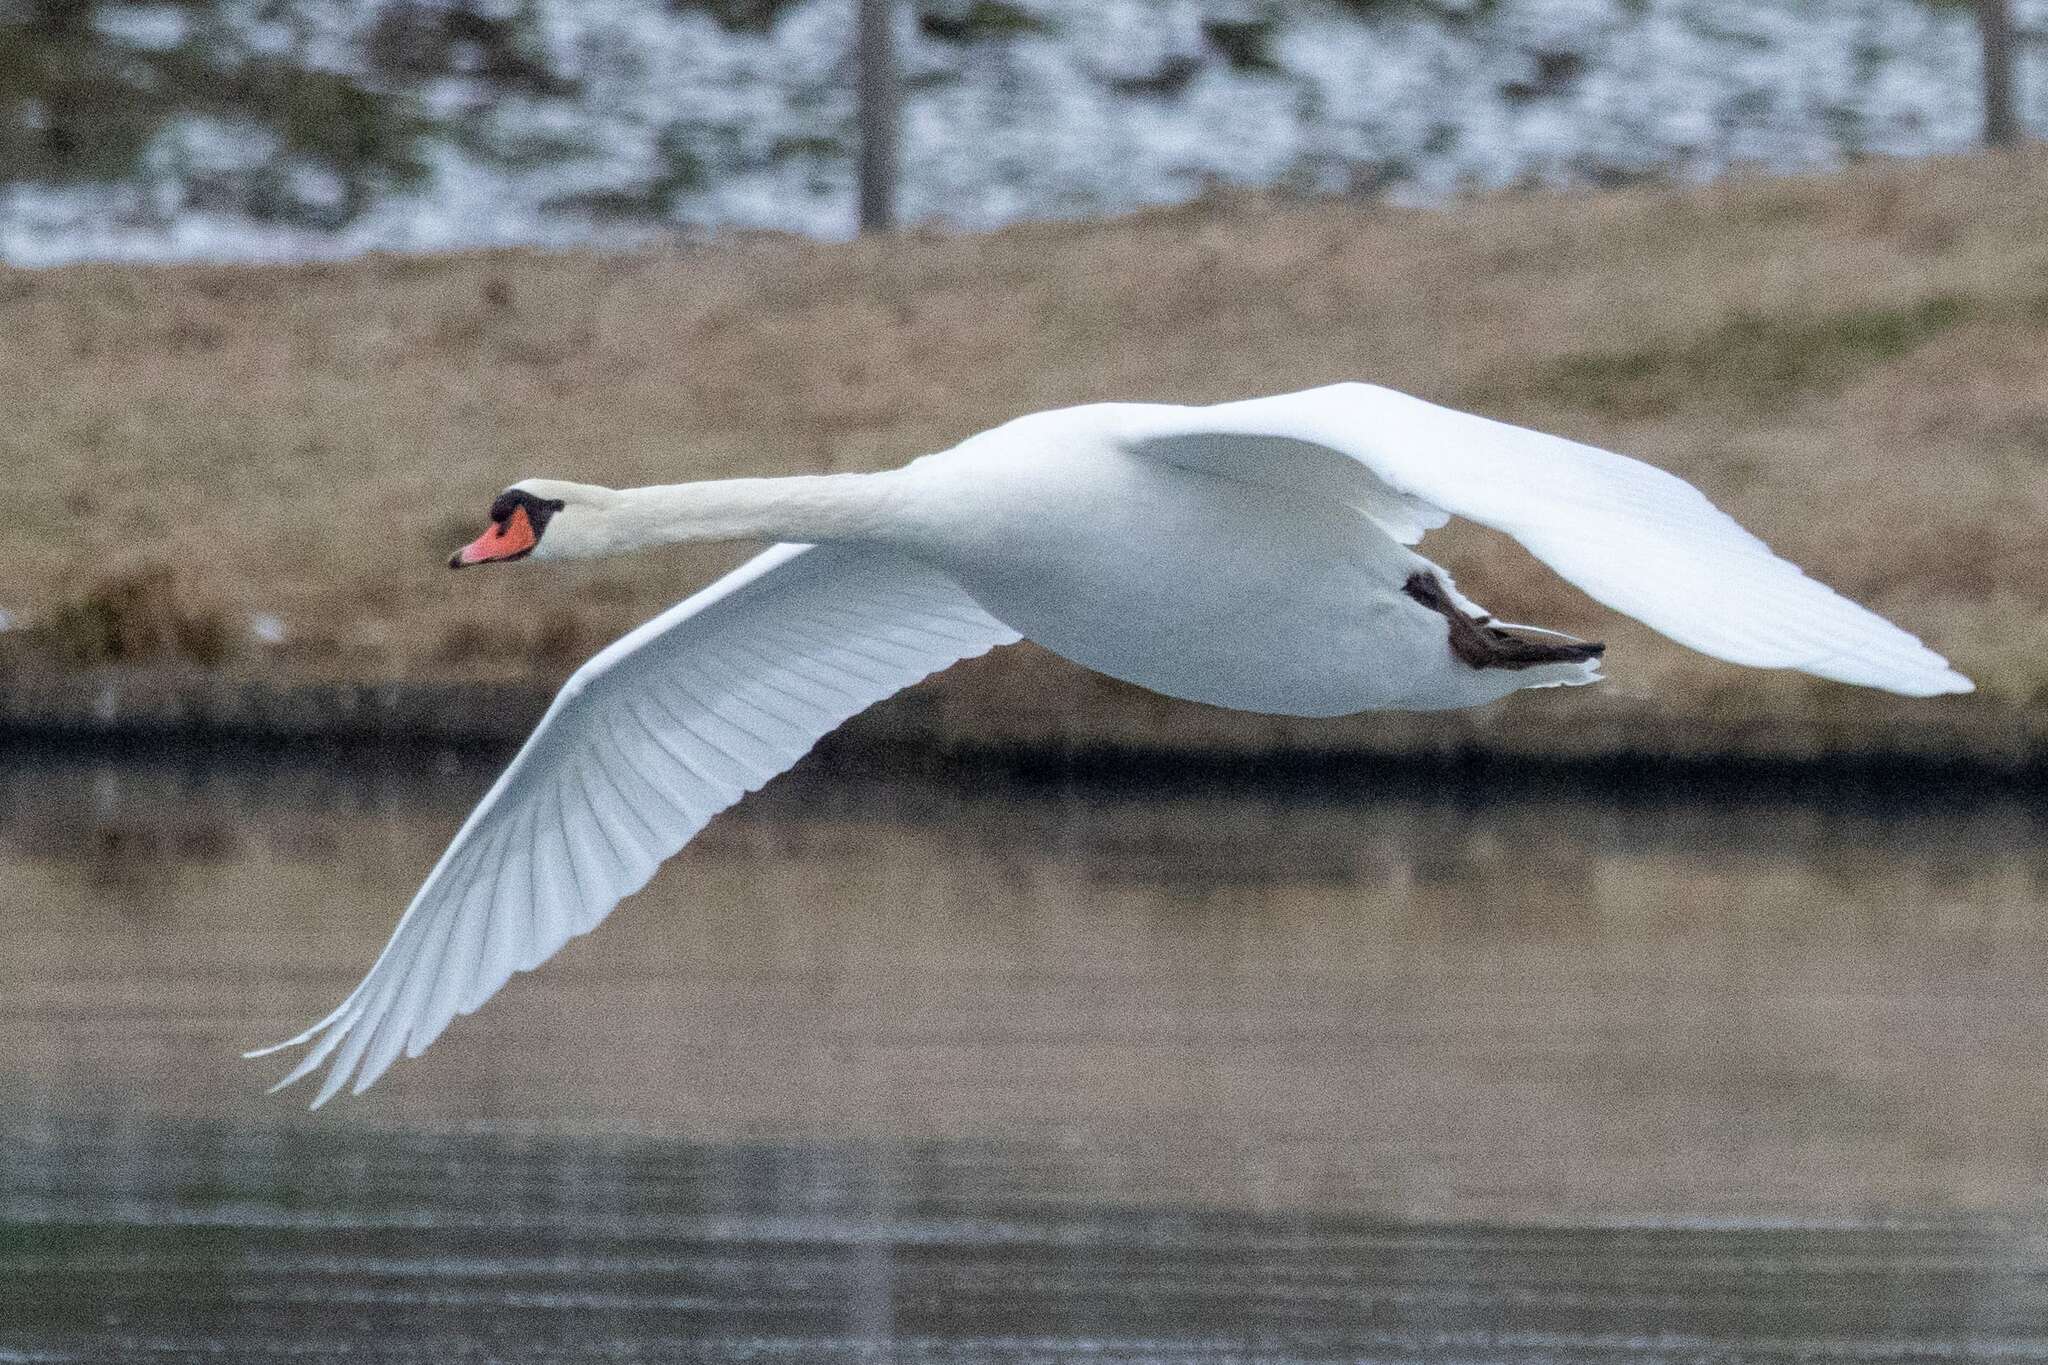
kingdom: Animalia
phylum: Chordata
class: Aves
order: Anseriformes
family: Anatidae
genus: Cygnus
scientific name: Cygnus olor
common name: Mute swan
